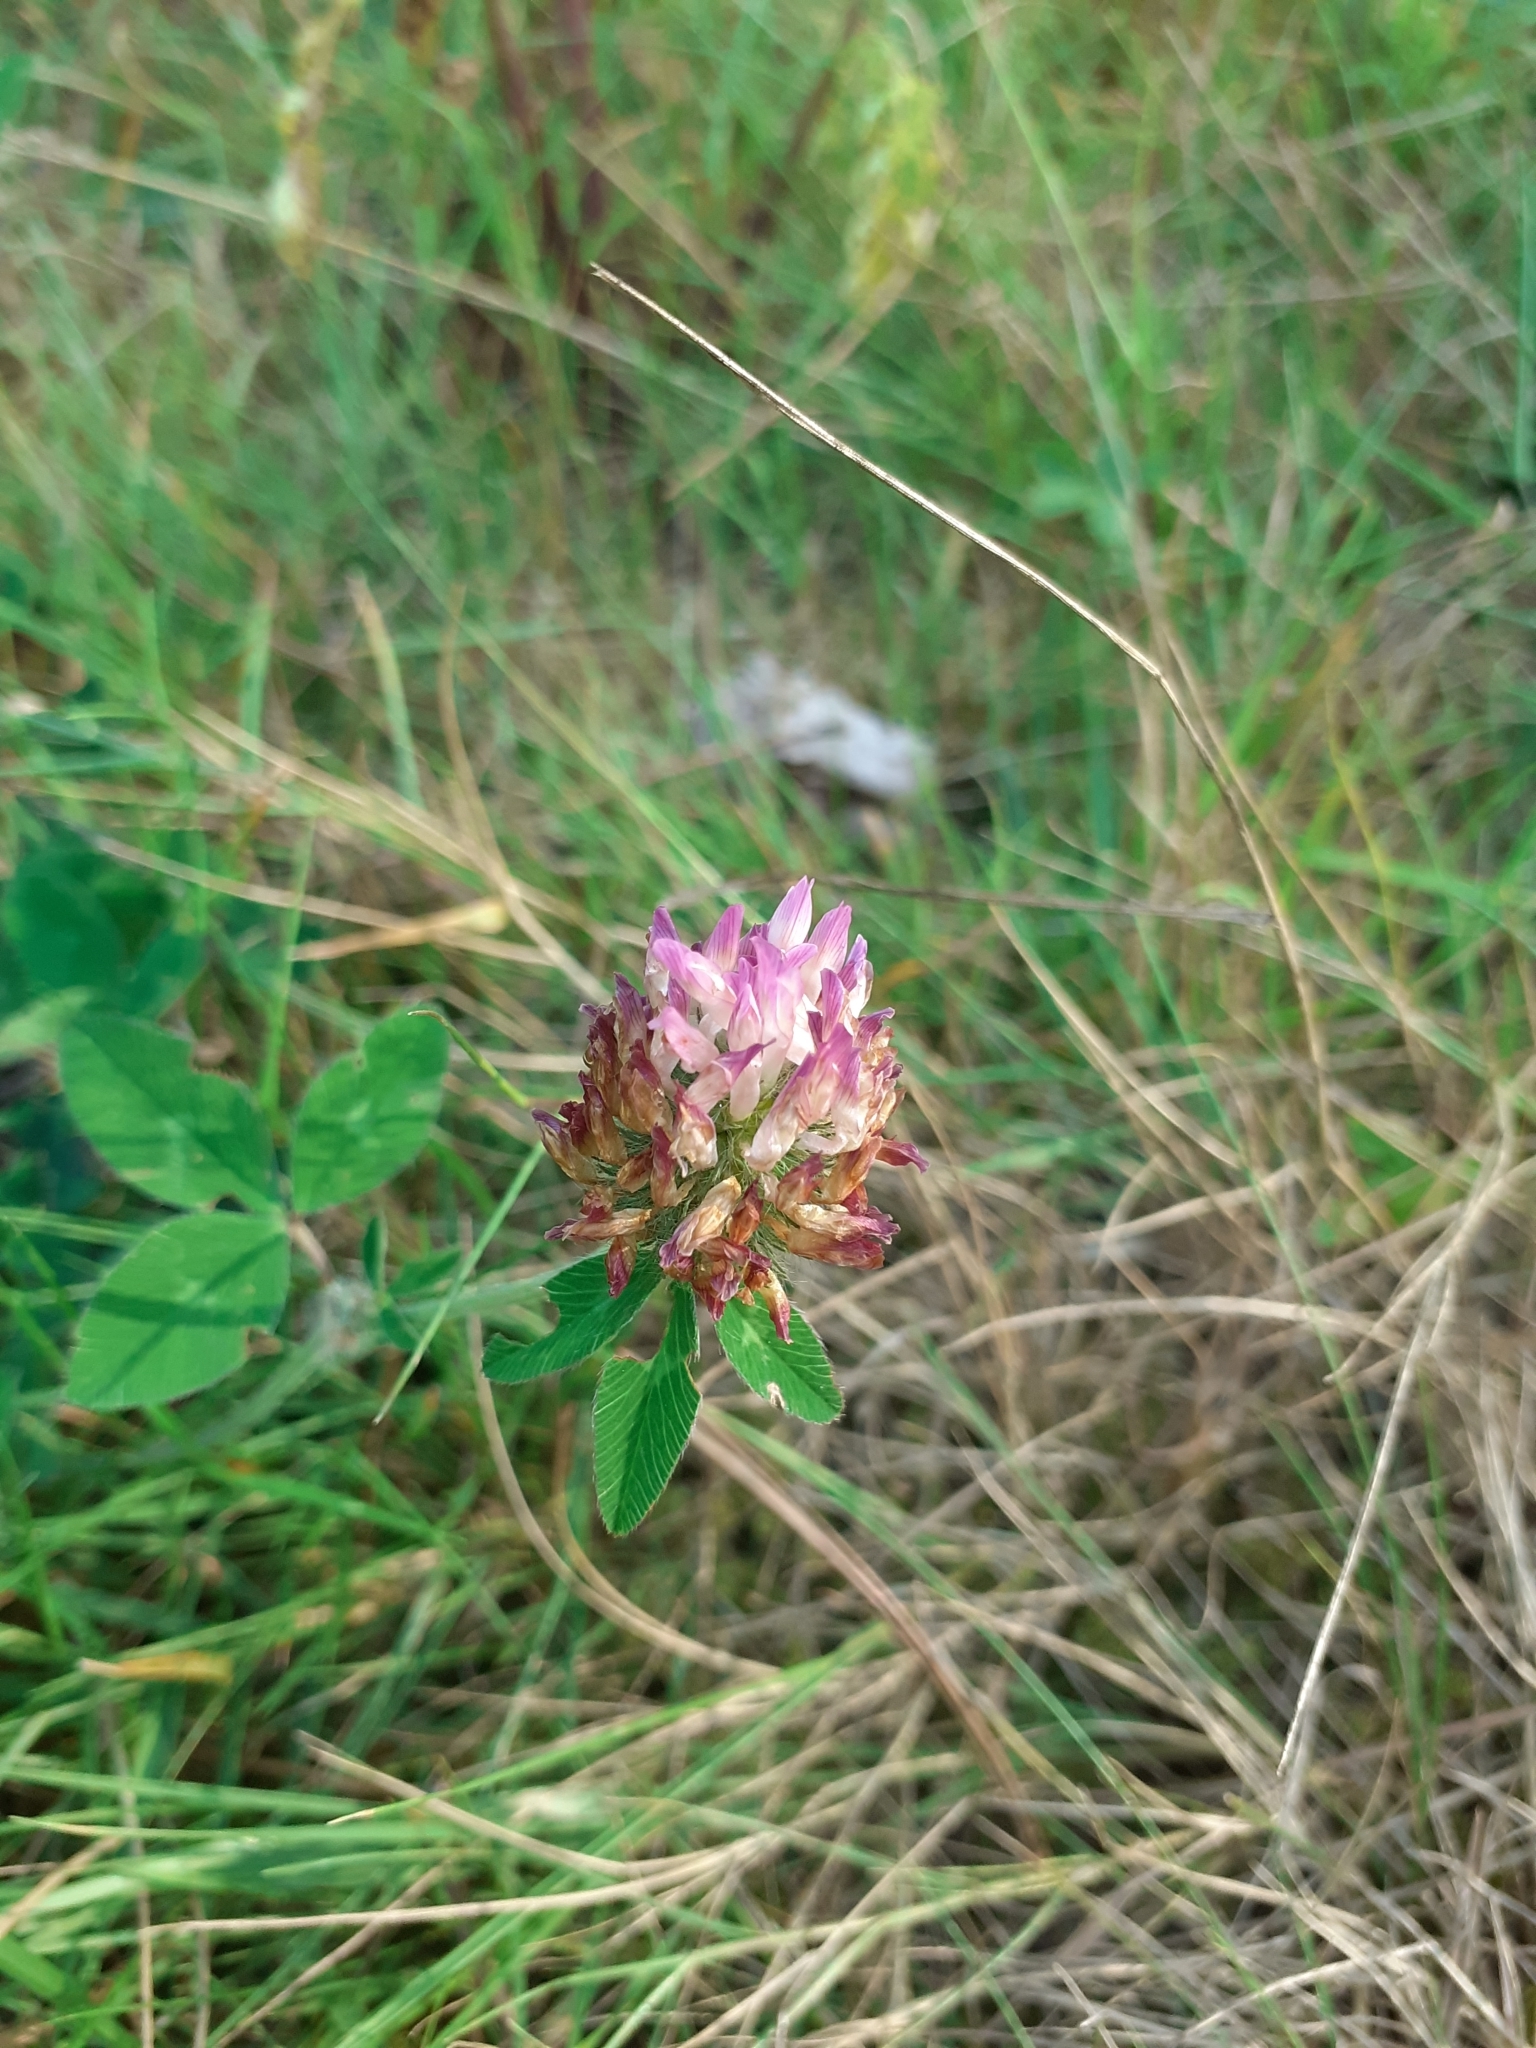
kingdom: Plantae
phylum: Tracheophyta
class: Magnoliopsida
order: Fabales
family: Fabaceae
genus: Trifolium
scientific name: Trifolium pratense
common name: Red clover
